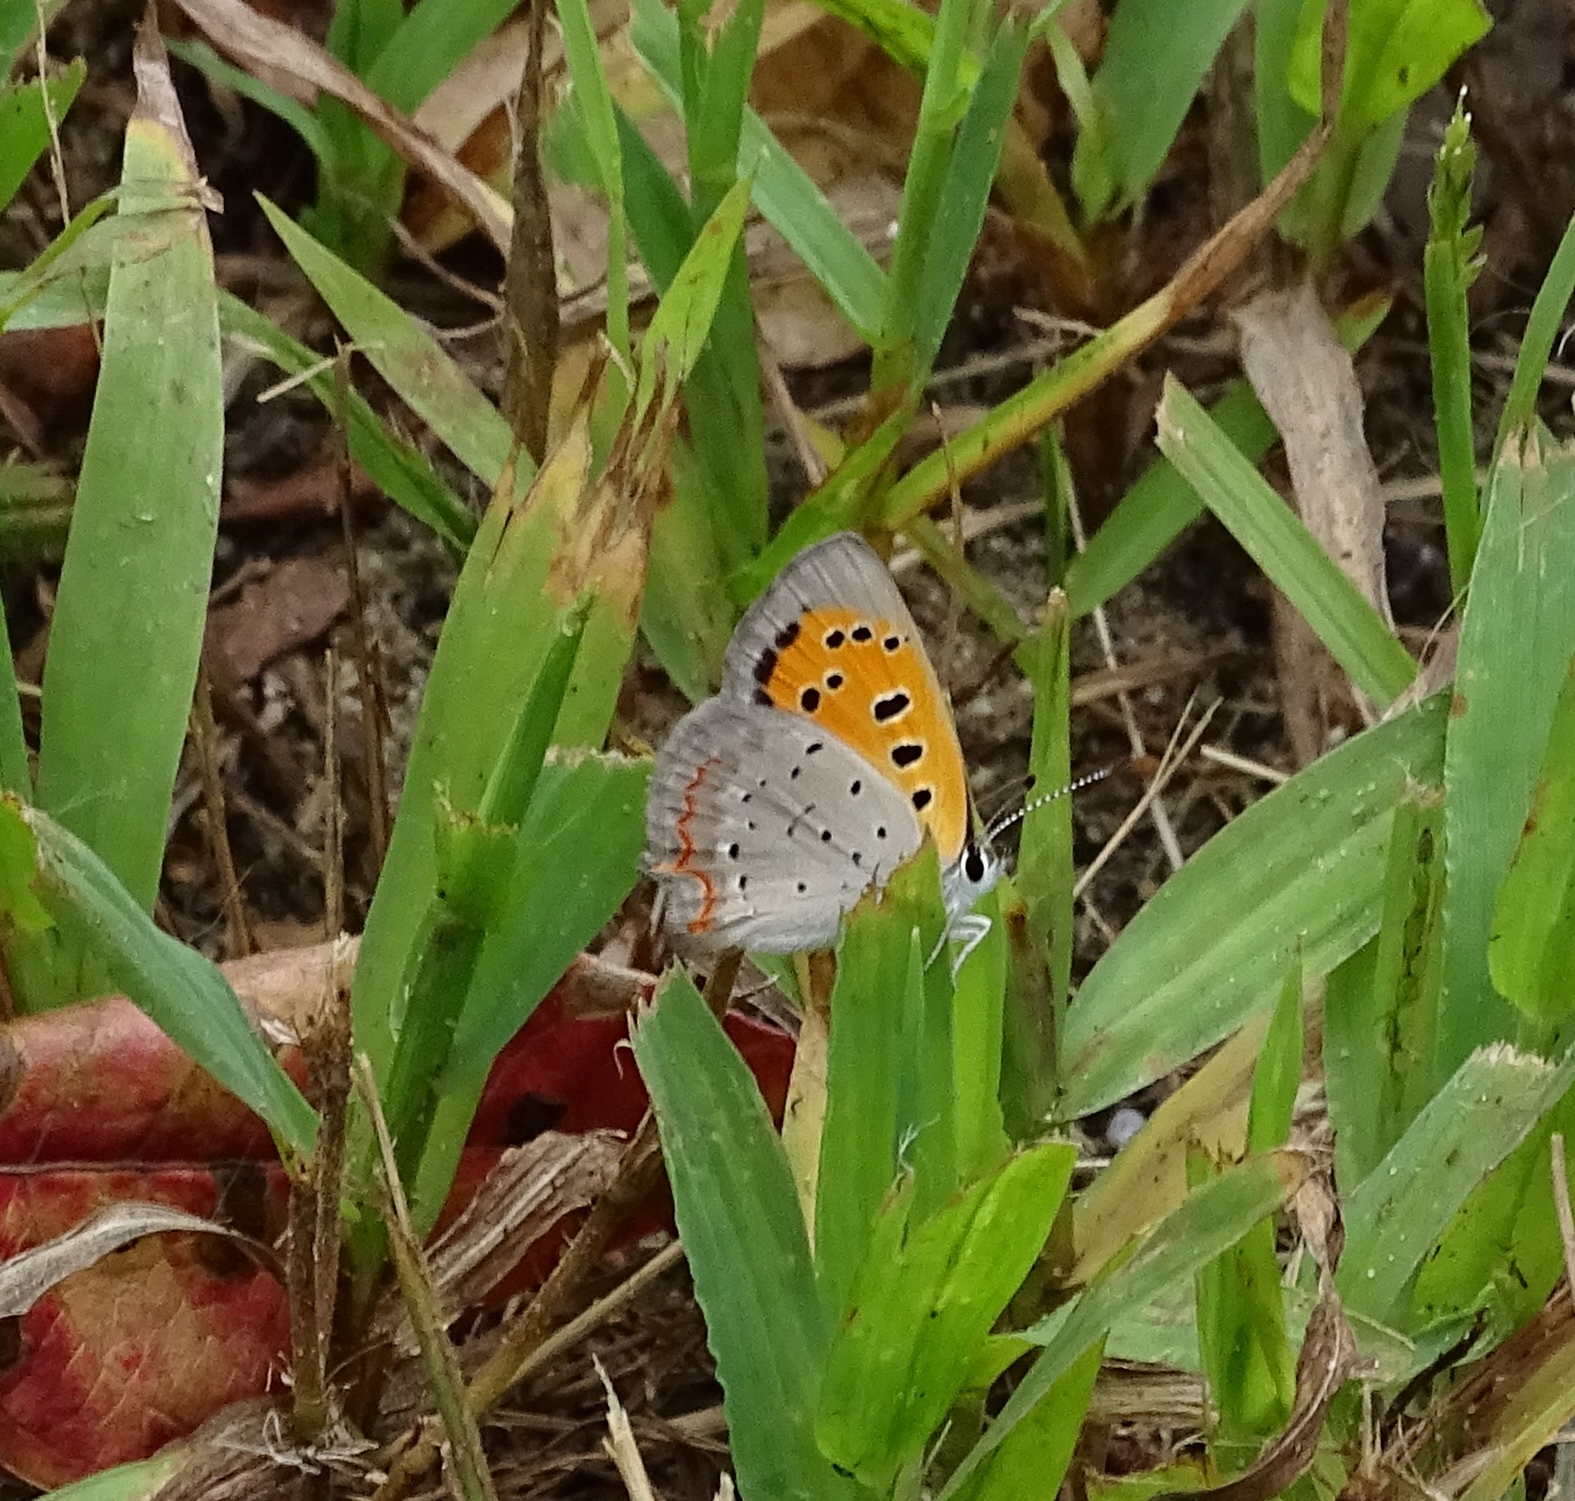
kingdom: Animalia
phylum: Arthropoda
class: Insecta
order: Lepidoptera
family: Lycaenidae
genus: Lycaena
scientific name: Lycaena hypophlaeas
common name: American copper
